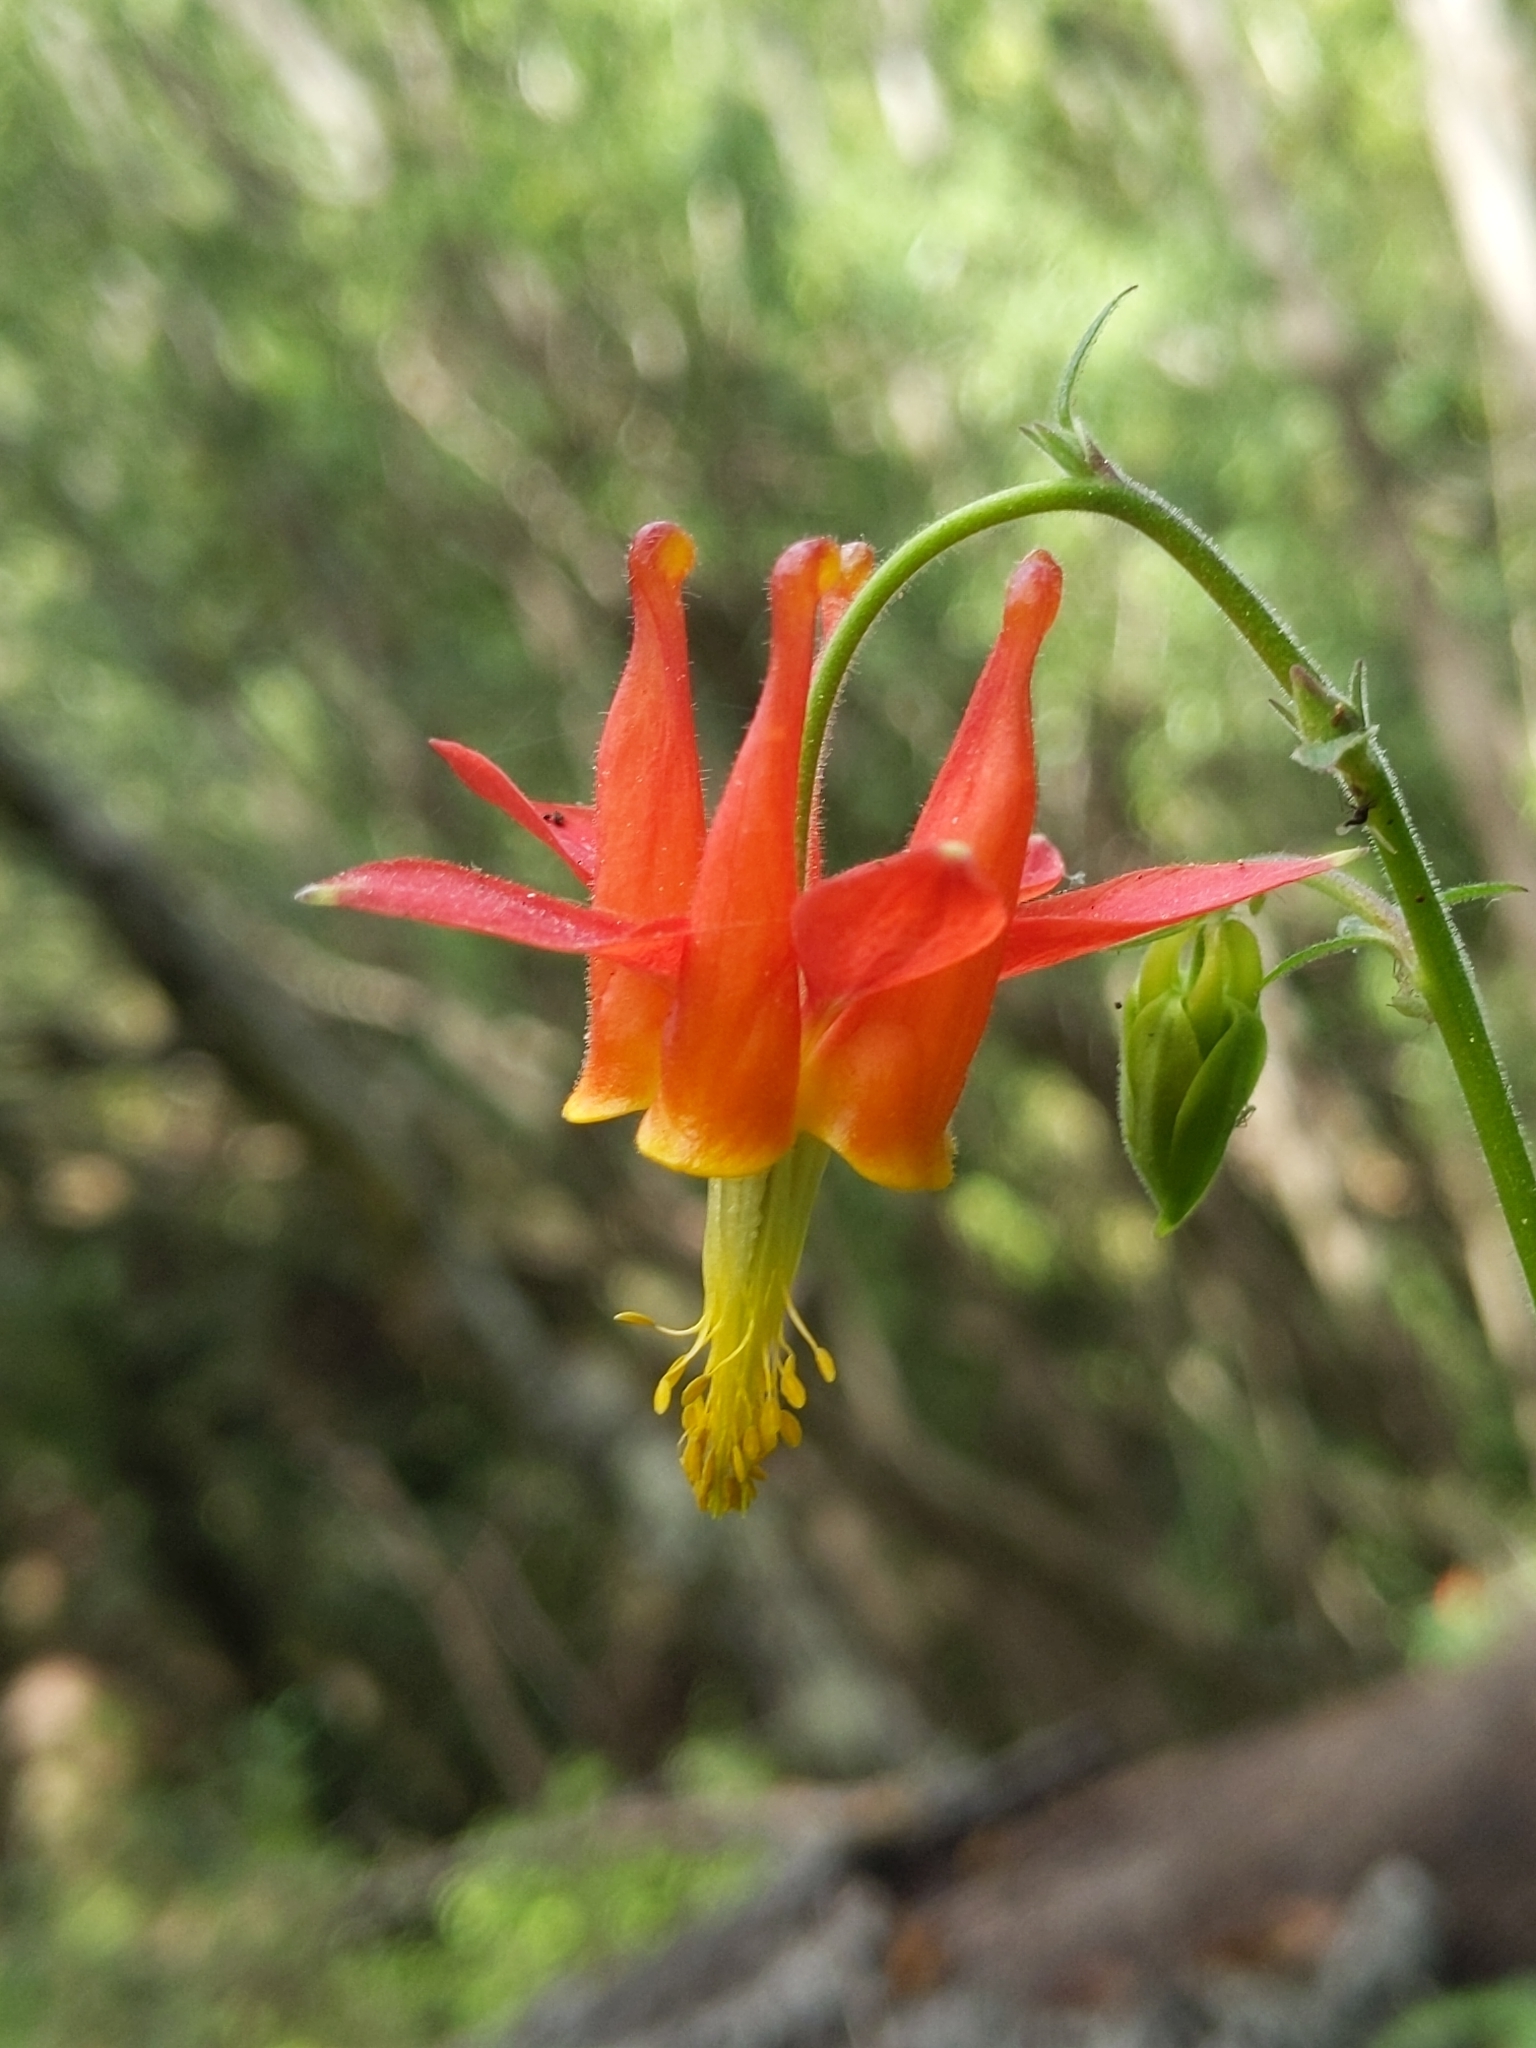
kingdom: Plantae
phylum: Tracheophyta
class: Magnoliopsida
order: Ranunculales
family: Ranunculaceae
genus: Aquilegia
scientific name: Aquilegia formosa
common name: Sitka columbine
